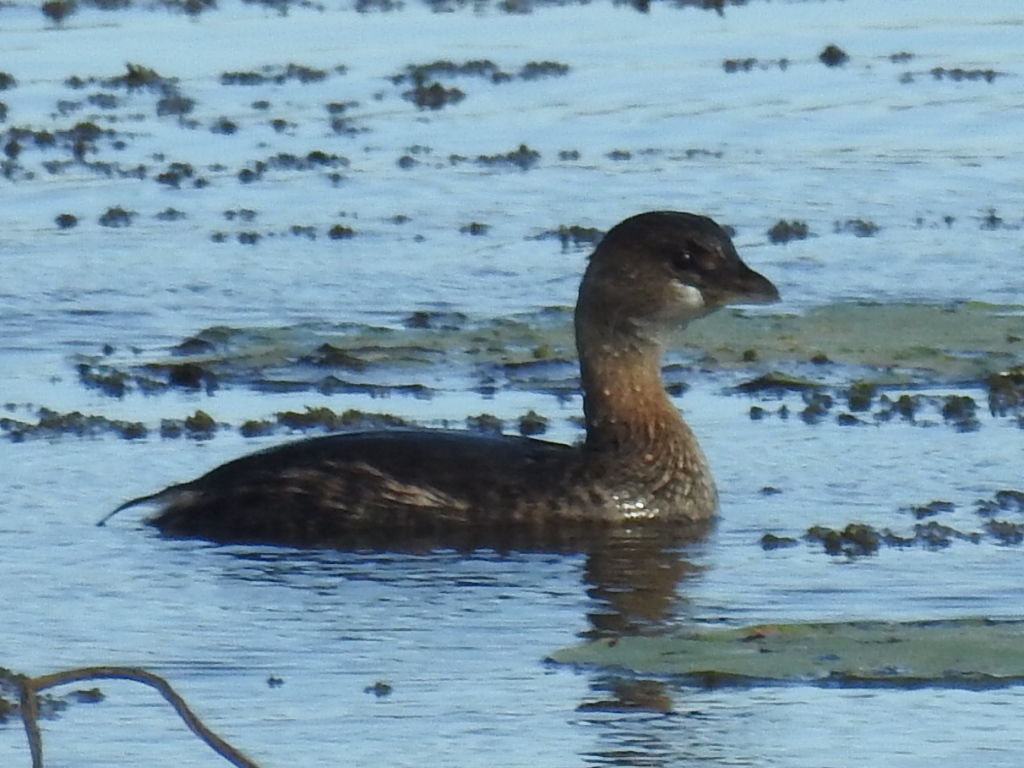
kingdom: Animalia
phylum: Chordata
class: Aves
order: Podicipediformes
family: Podicipedidae
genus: Podilymbus
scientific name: Podilymbus podiceps
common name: Pied-billed grebe
